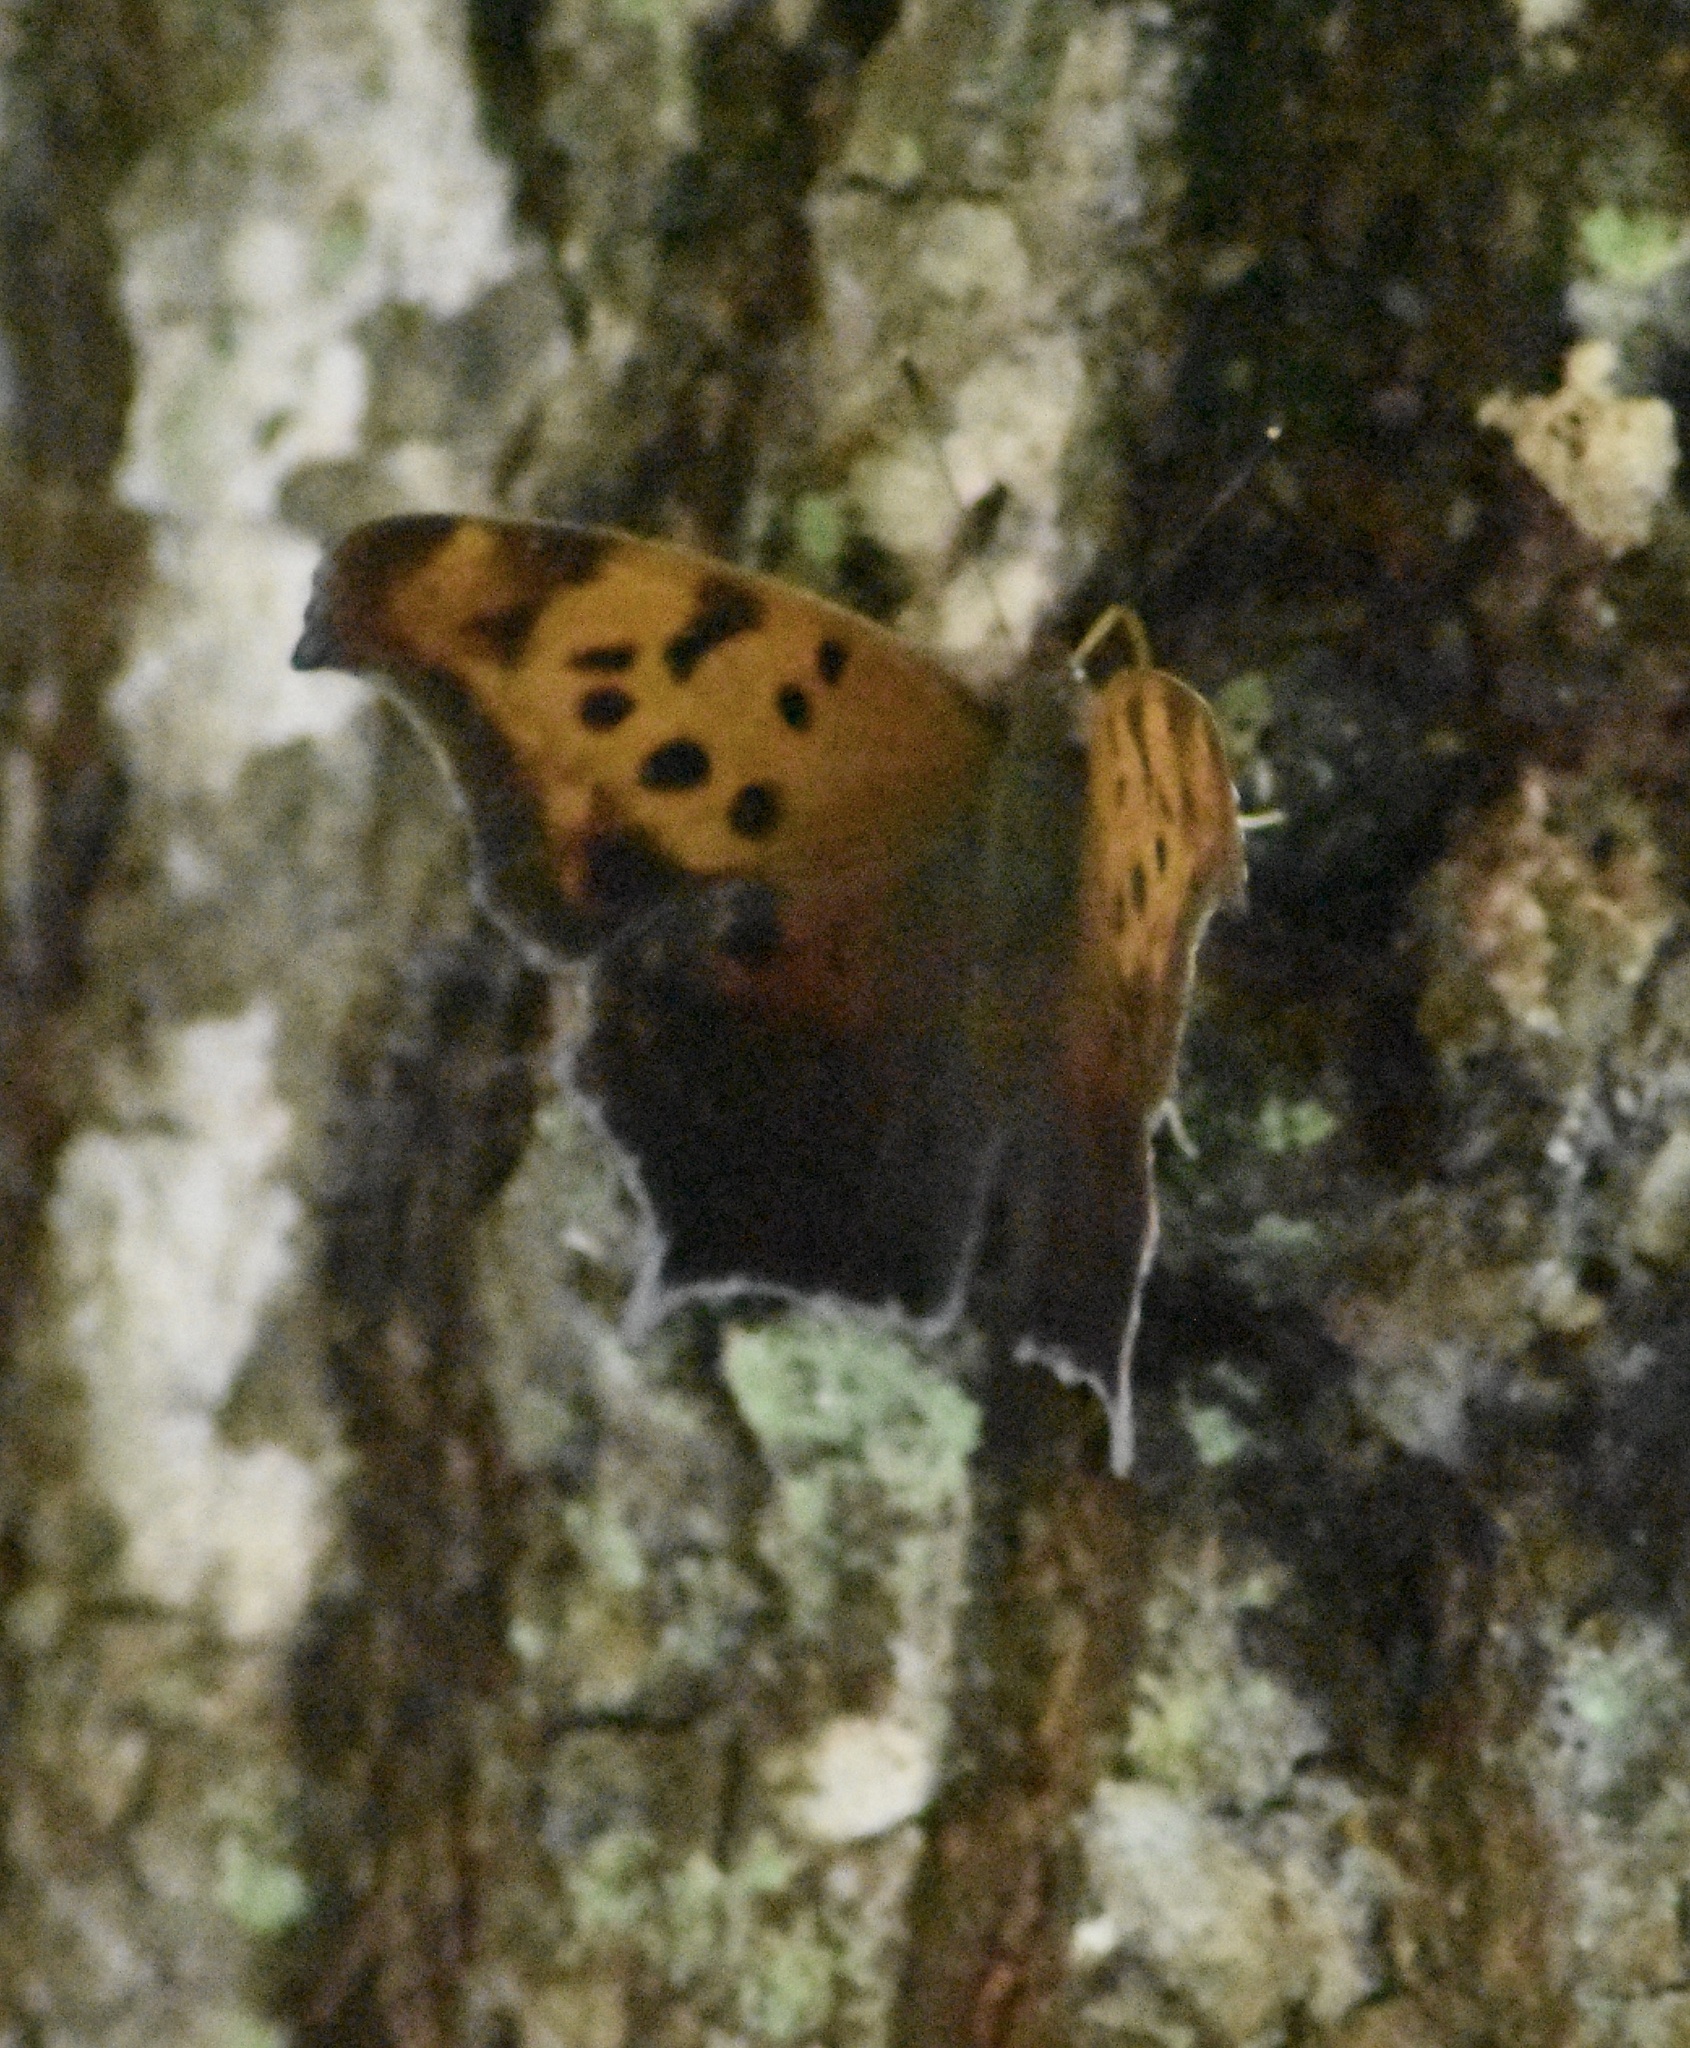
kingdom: Animalia
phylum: Arthropoda
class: Insecta
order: Lepidoptera
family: Nymphalidae
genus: Polygonia
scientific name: Polygonia interrogationis
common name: Question mark
